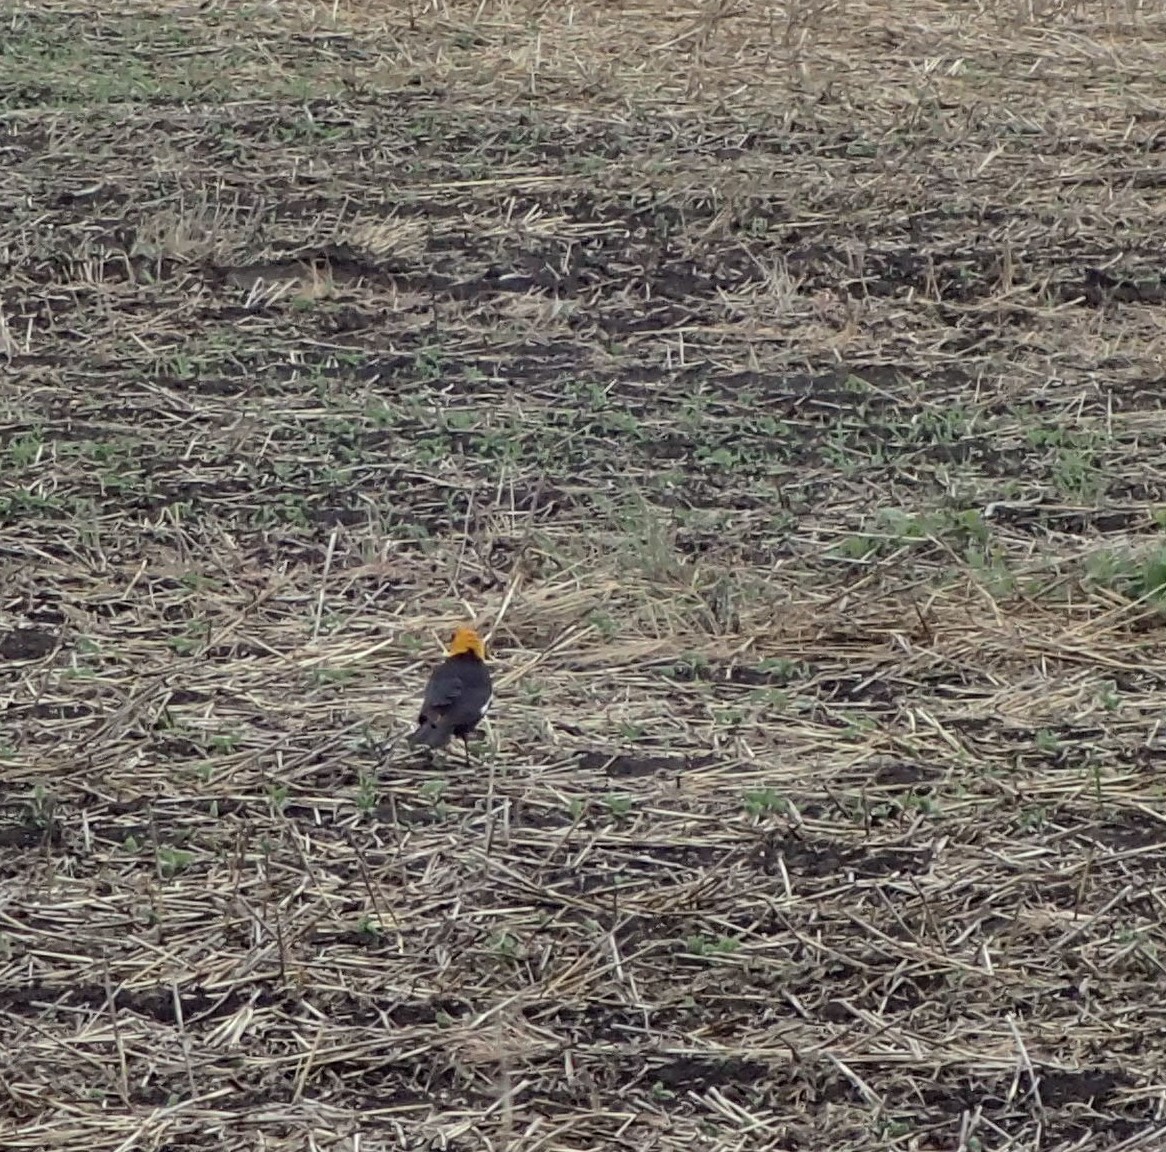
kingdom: Animalia
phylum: Chordata
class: Aves
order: Passeriformes
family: Icteridae
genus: Xanthocephalus
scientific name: Xanthocephalus xanthocephalus
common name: Yellow-headed blackbird
